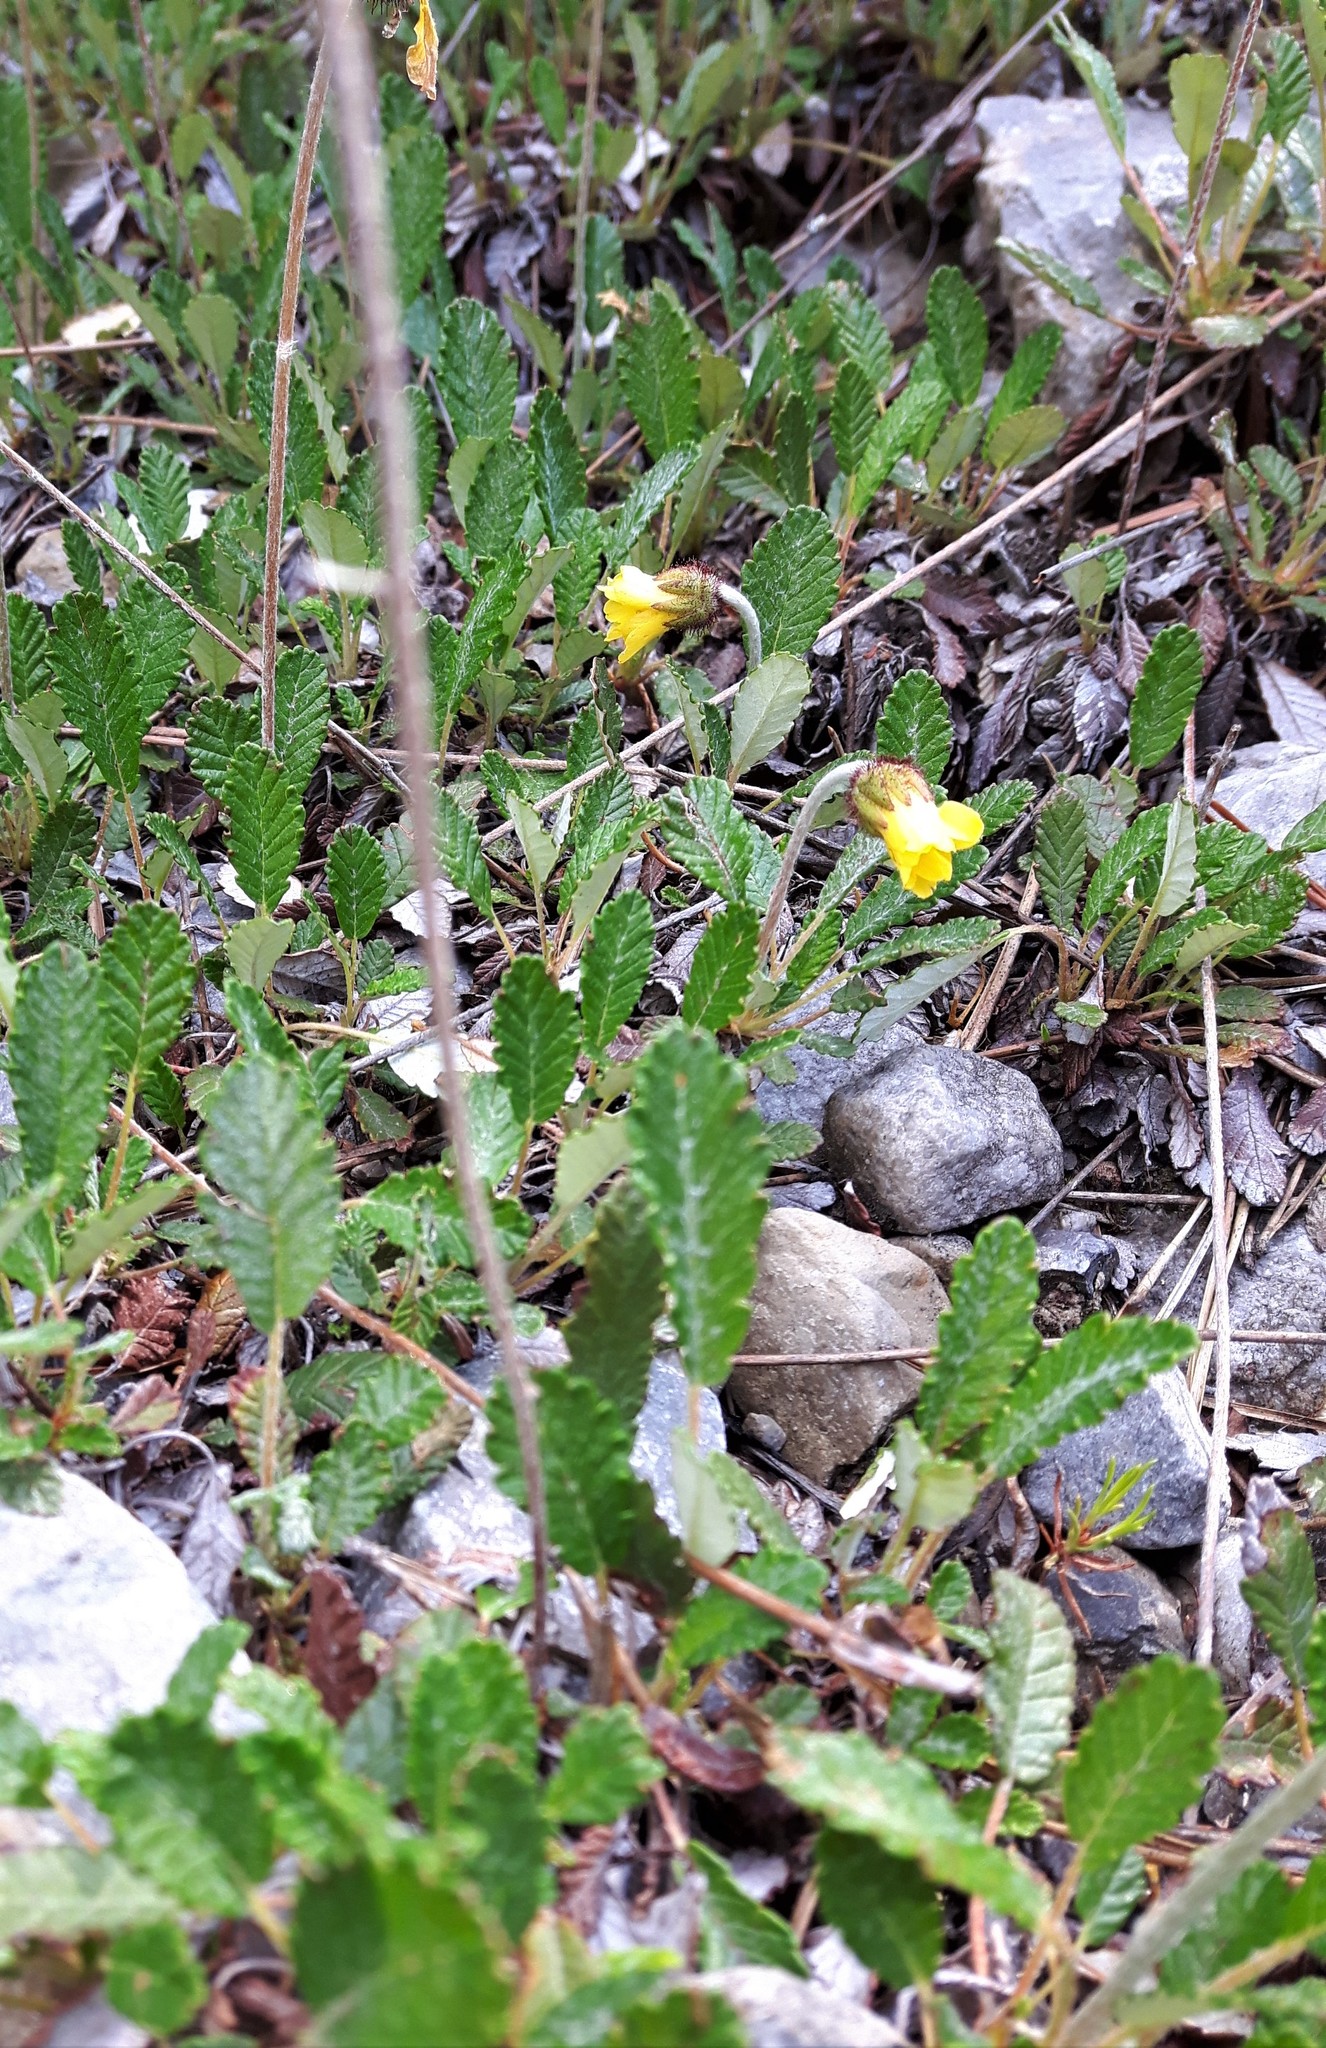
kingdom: Plantae
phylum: Tracheophyta
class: Magnoliopsida
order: Rosales
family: Rosaceae
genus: Dryas
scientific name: Dryas drummondii
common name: Drummond's dryad
